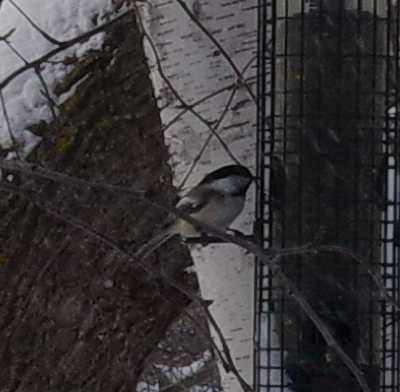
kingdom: Animalia
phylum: Chordata
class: Aves
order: Passeriformes
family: Paridae
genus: Poecile
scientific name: Poecile atricapillus
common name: Black-capped chickadee
